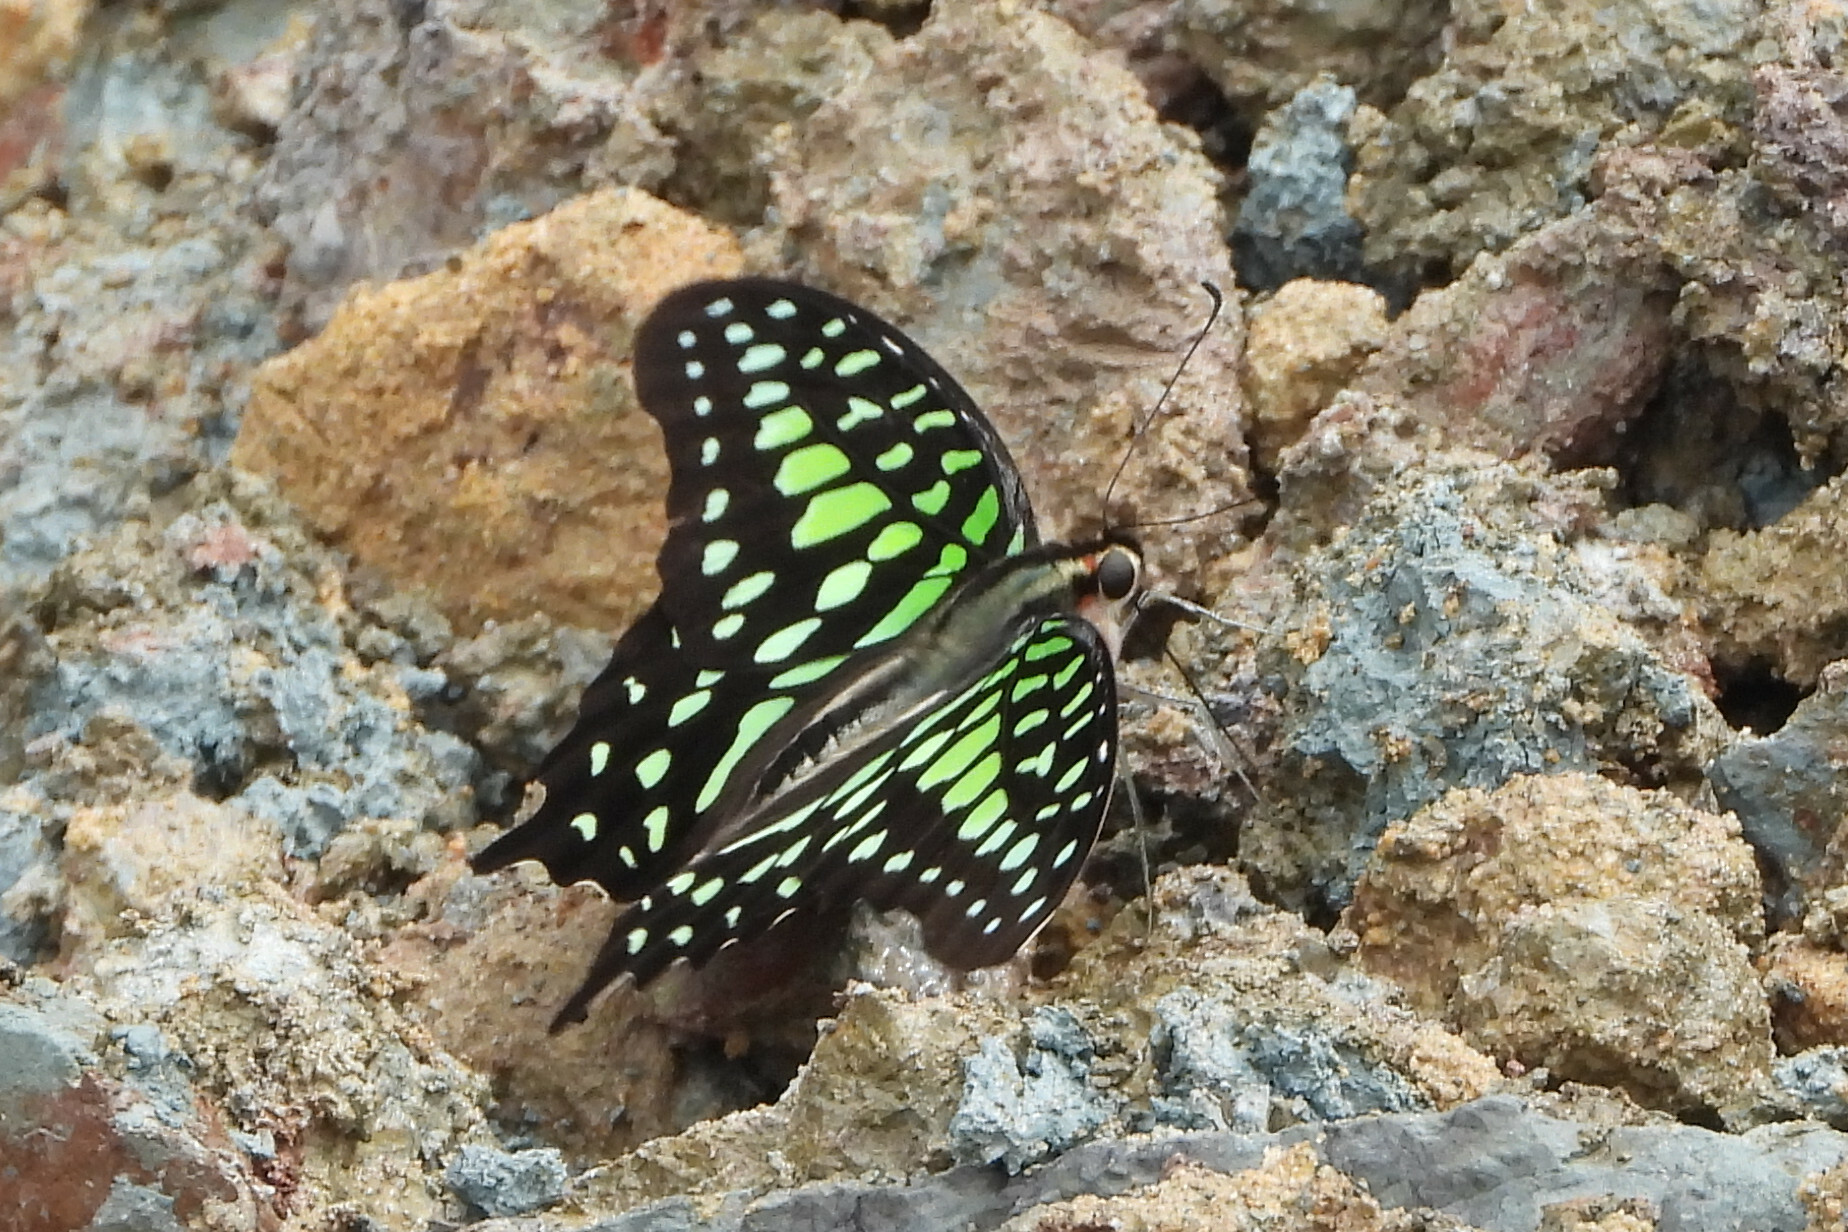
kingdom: Animalia
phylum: Arthropoda
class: Insecta
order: Lepidoptera
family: Papilionidae
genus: Graphium
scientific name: Graphium agamemnon
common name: Tailed jay
